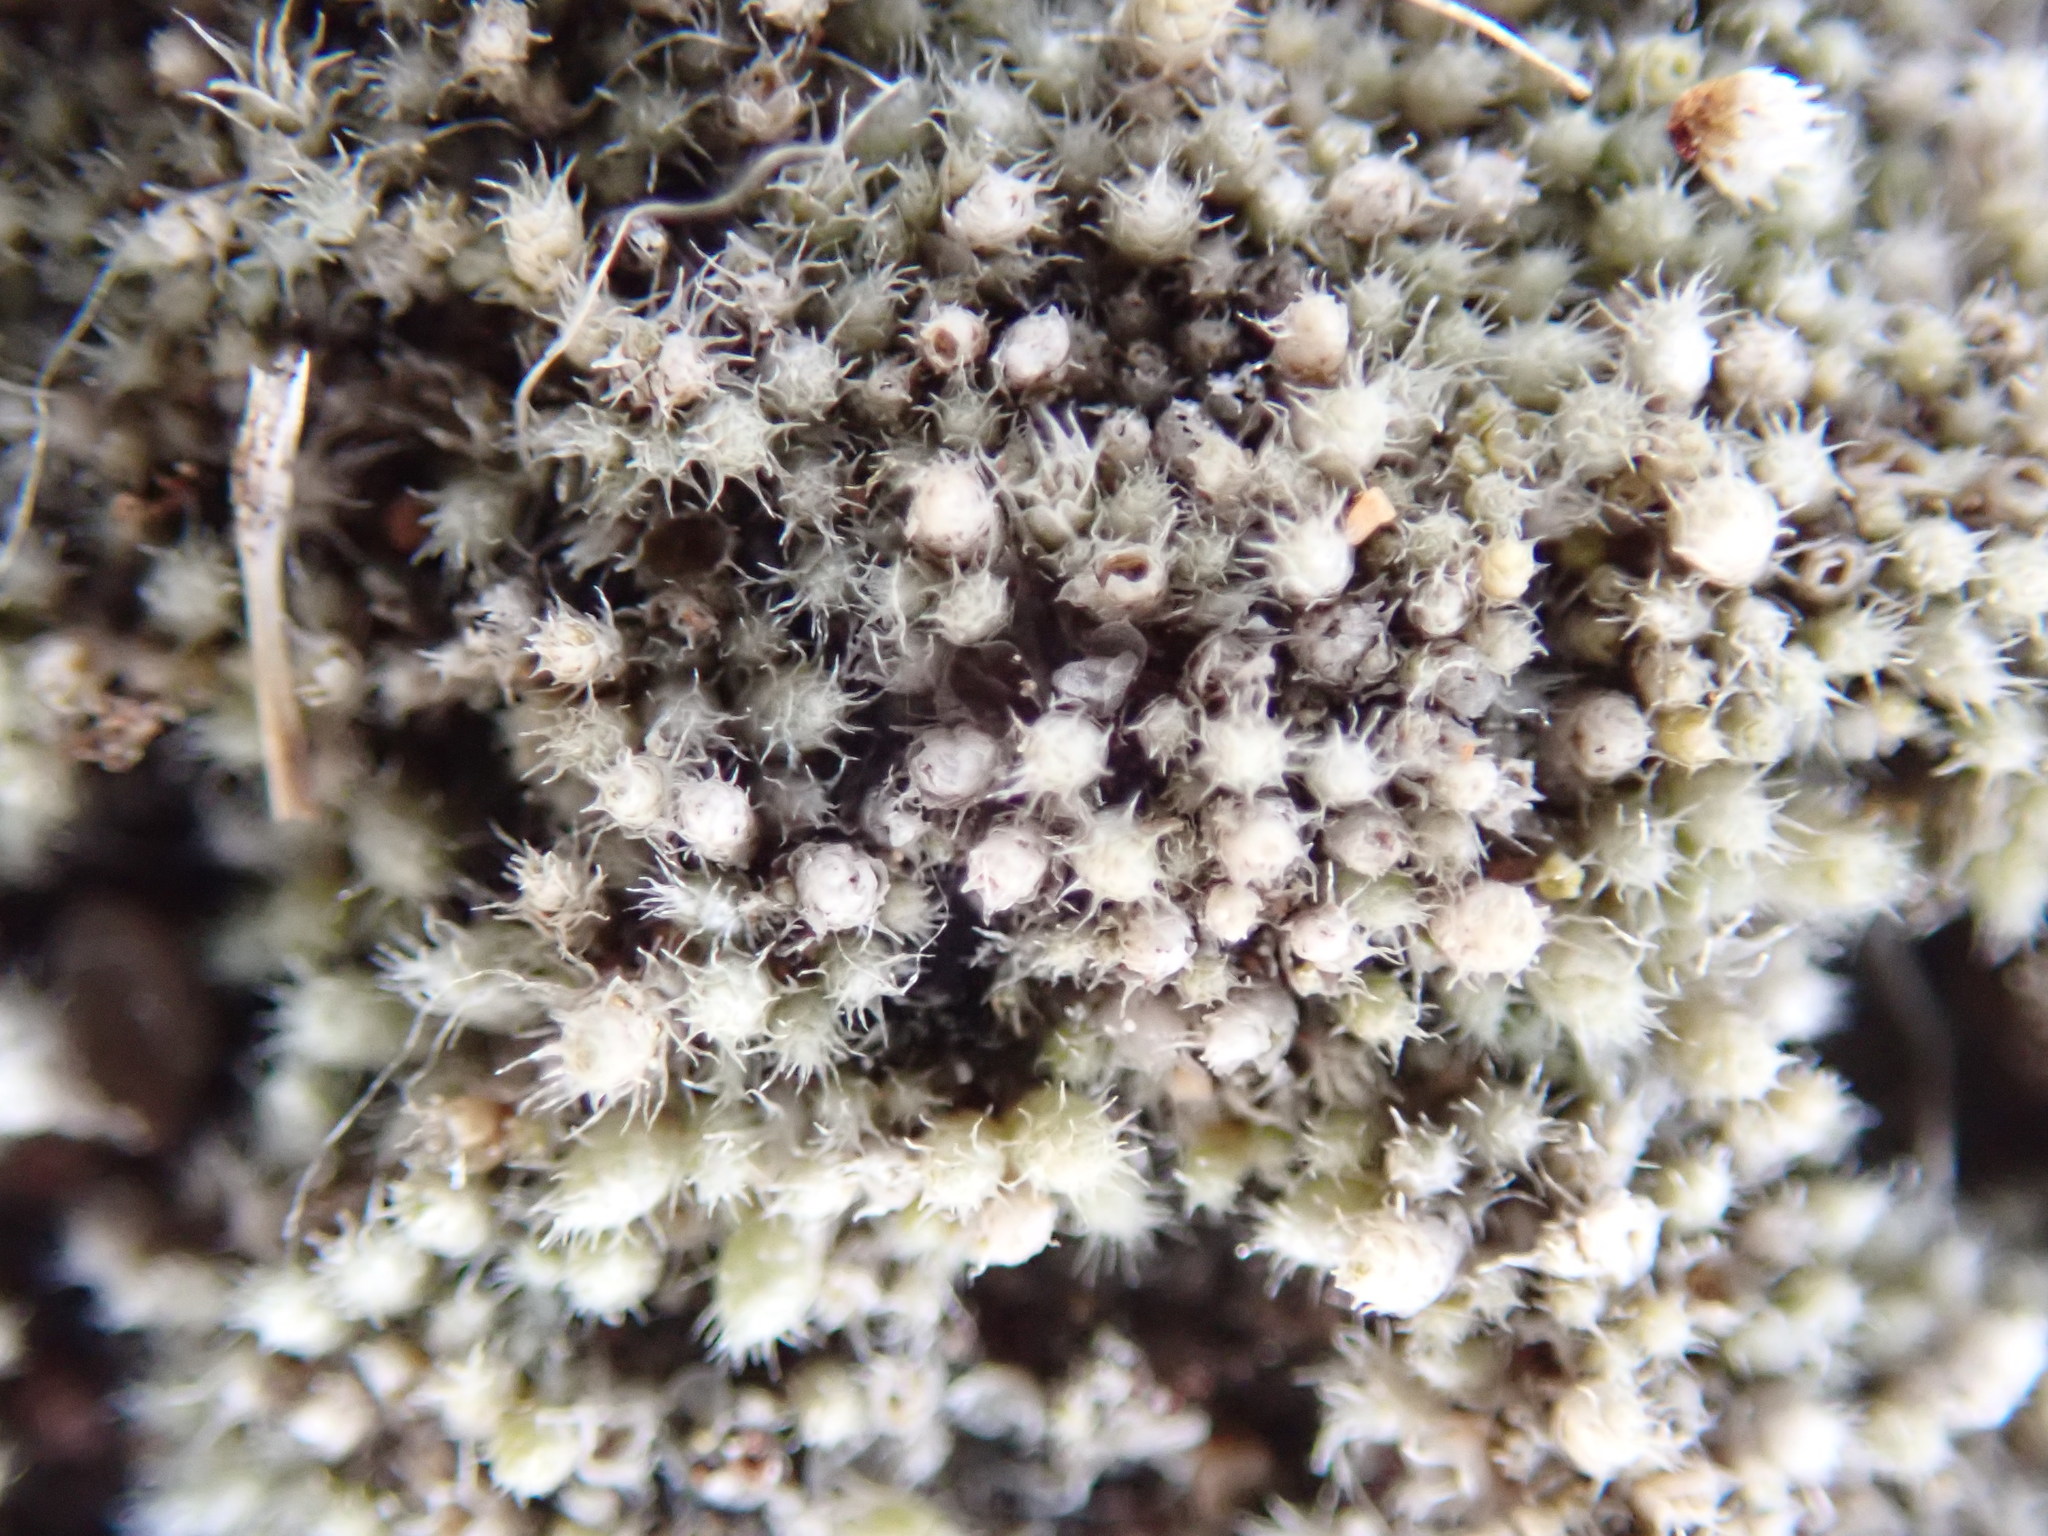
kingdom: Plantae
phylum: Bryophyta
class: Bryopsida
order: Bryales
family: Bryaceae
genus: Bryum
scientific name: Bryum argenteum
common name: Silver-moss
